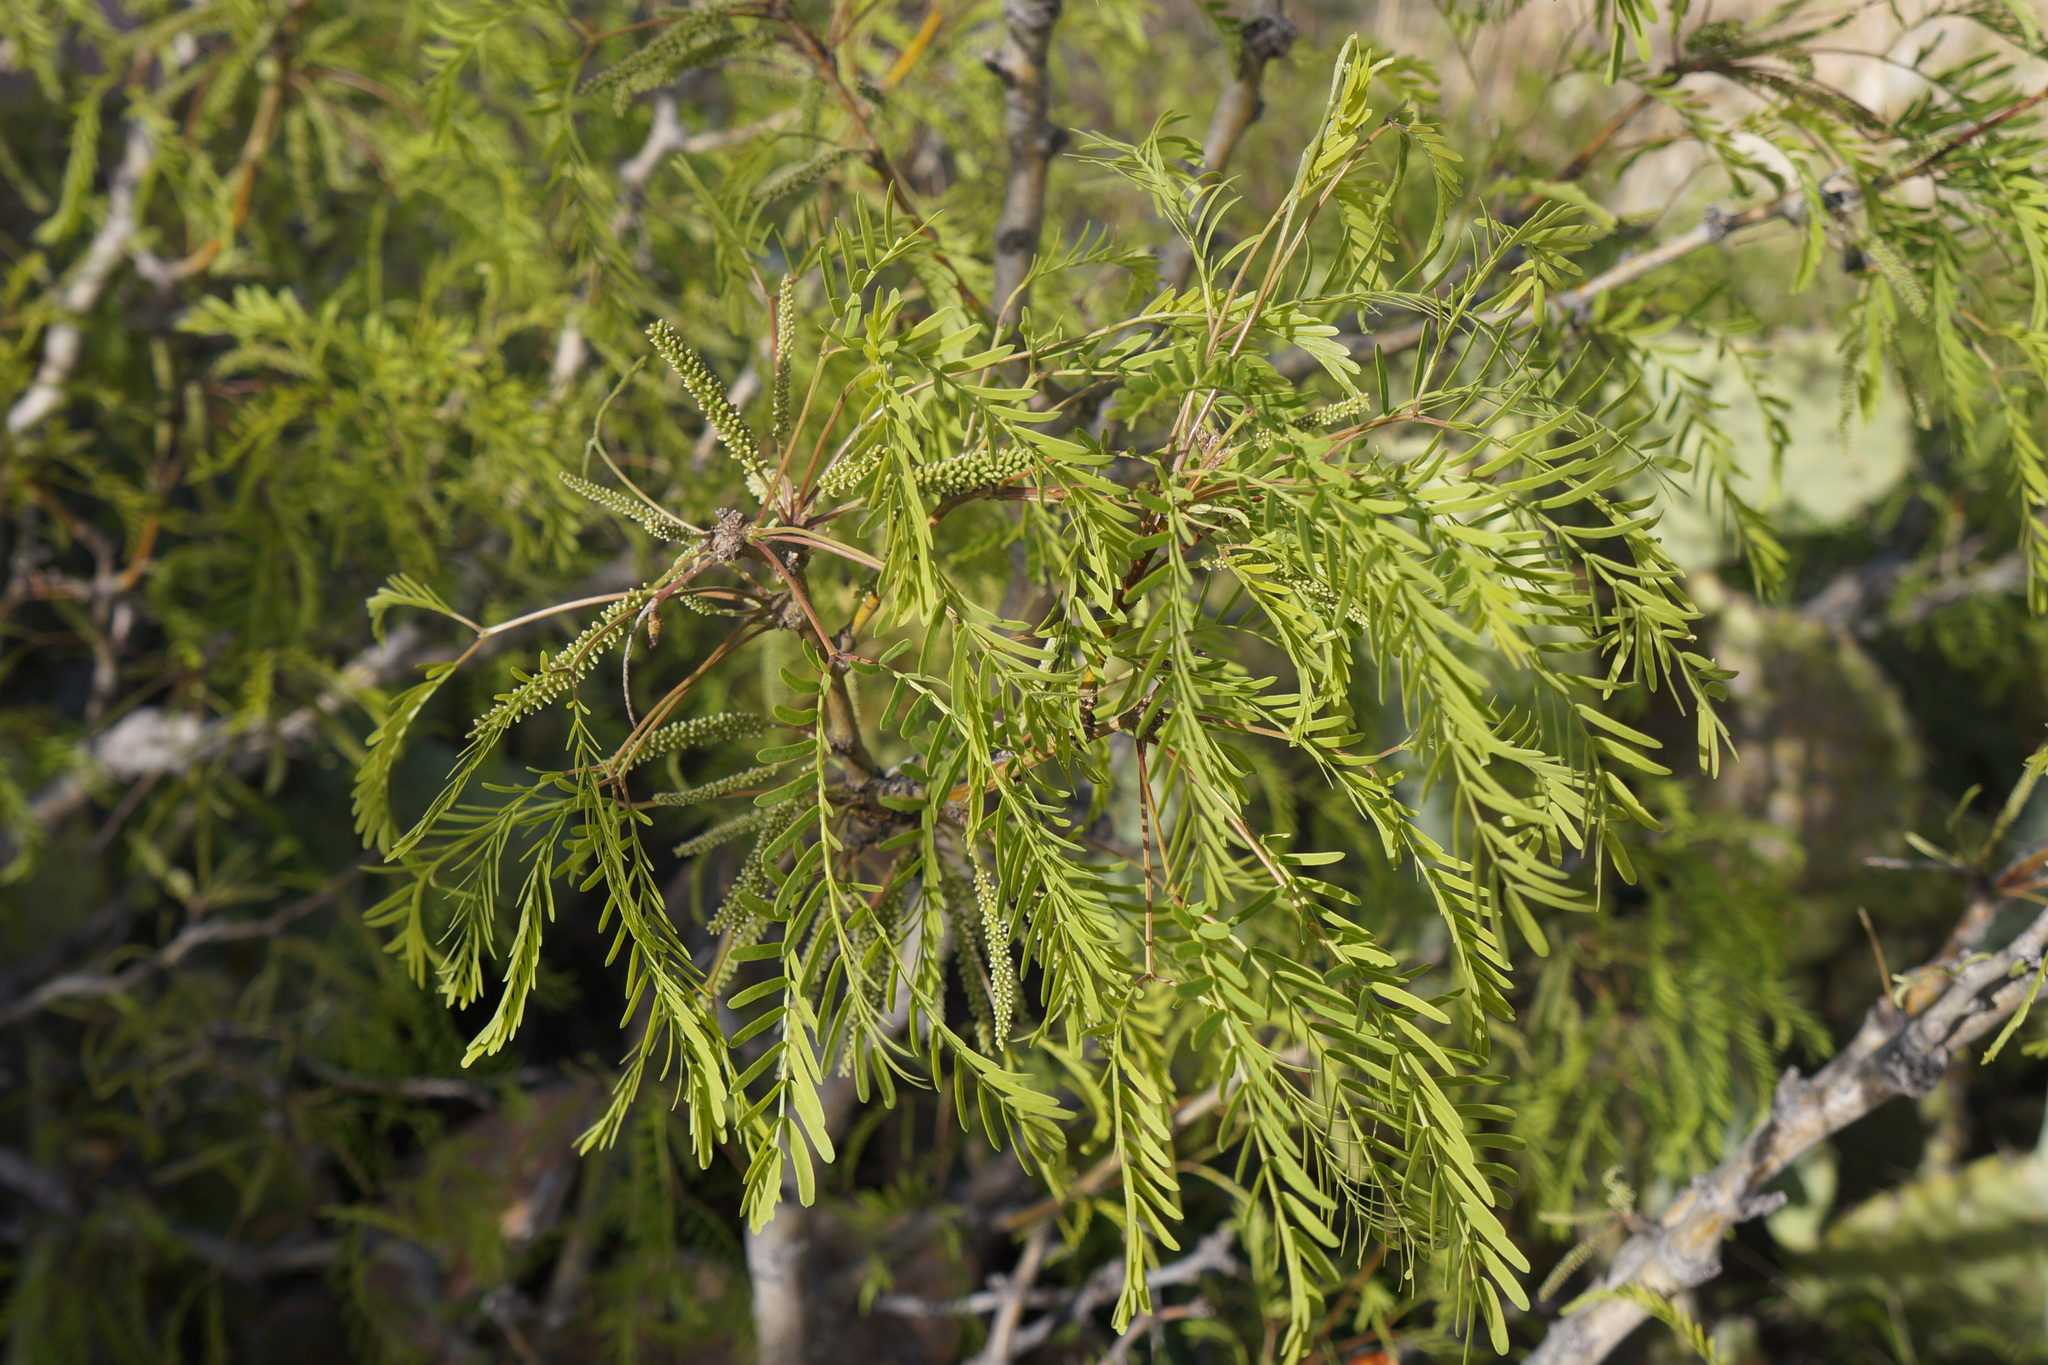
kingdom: Plantae
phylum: Tracheophyta
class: Magnoliopsida
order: Fabales
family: Fabaceae
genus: Prosopis
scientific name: Prosopis pubescens
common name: Screw-bean
